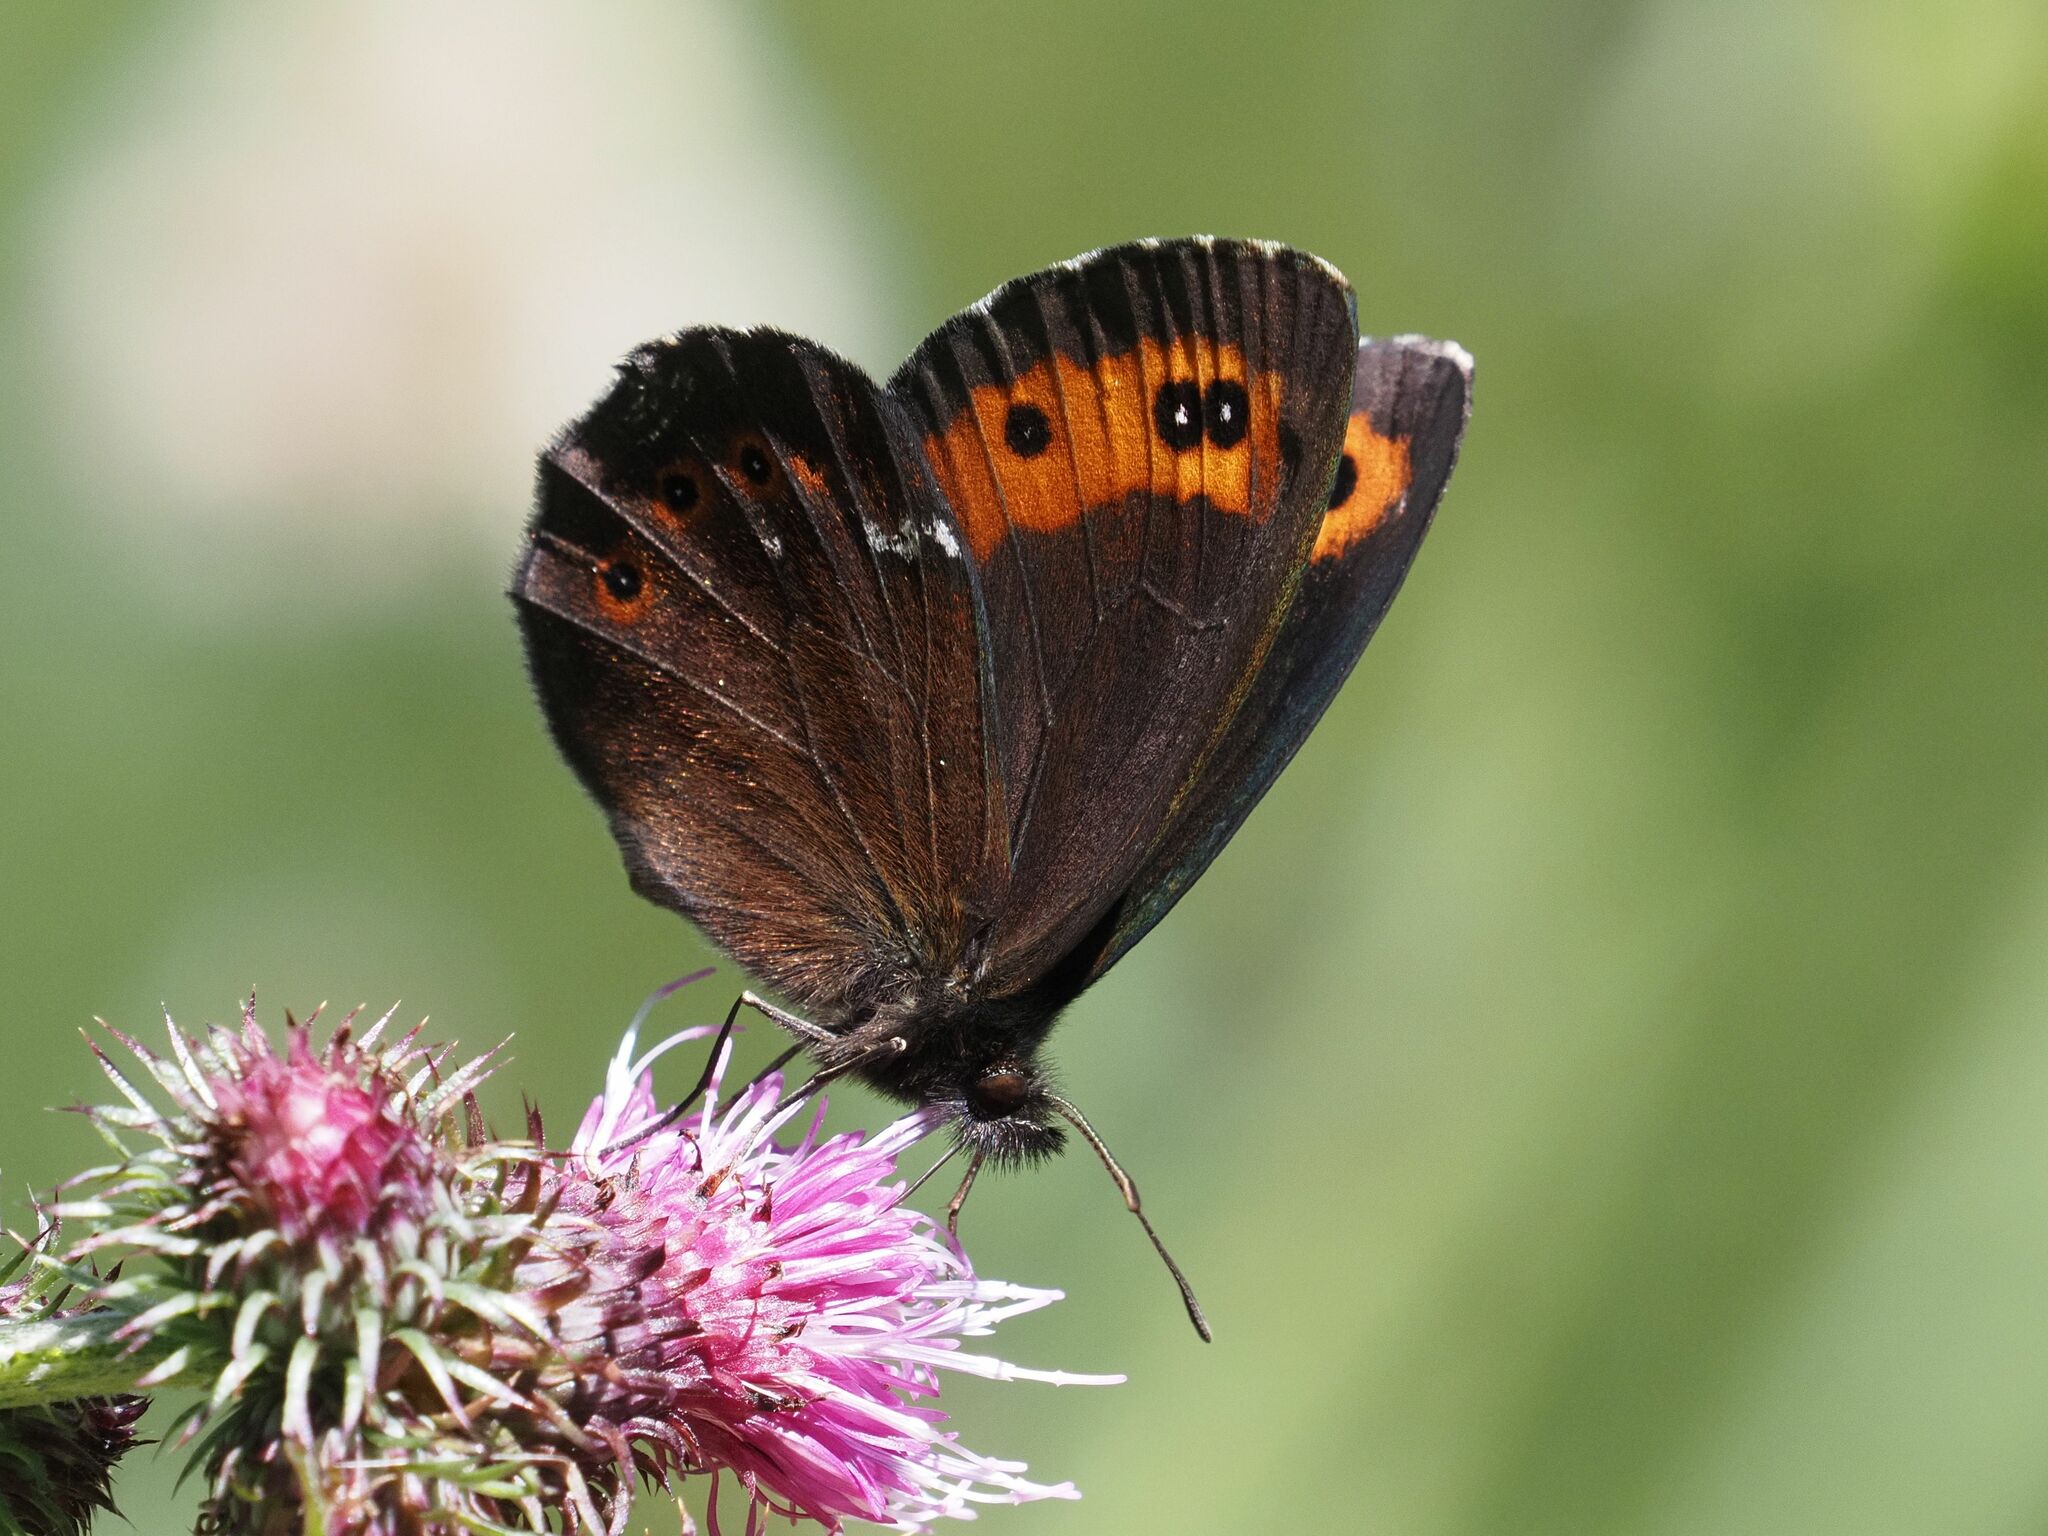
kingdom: Animalia
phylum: Arthropoda
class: Insecta
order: Lepidoptera
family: Nymphalidae
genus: Erebia
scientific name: Erebia ligea
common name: Arran brown
